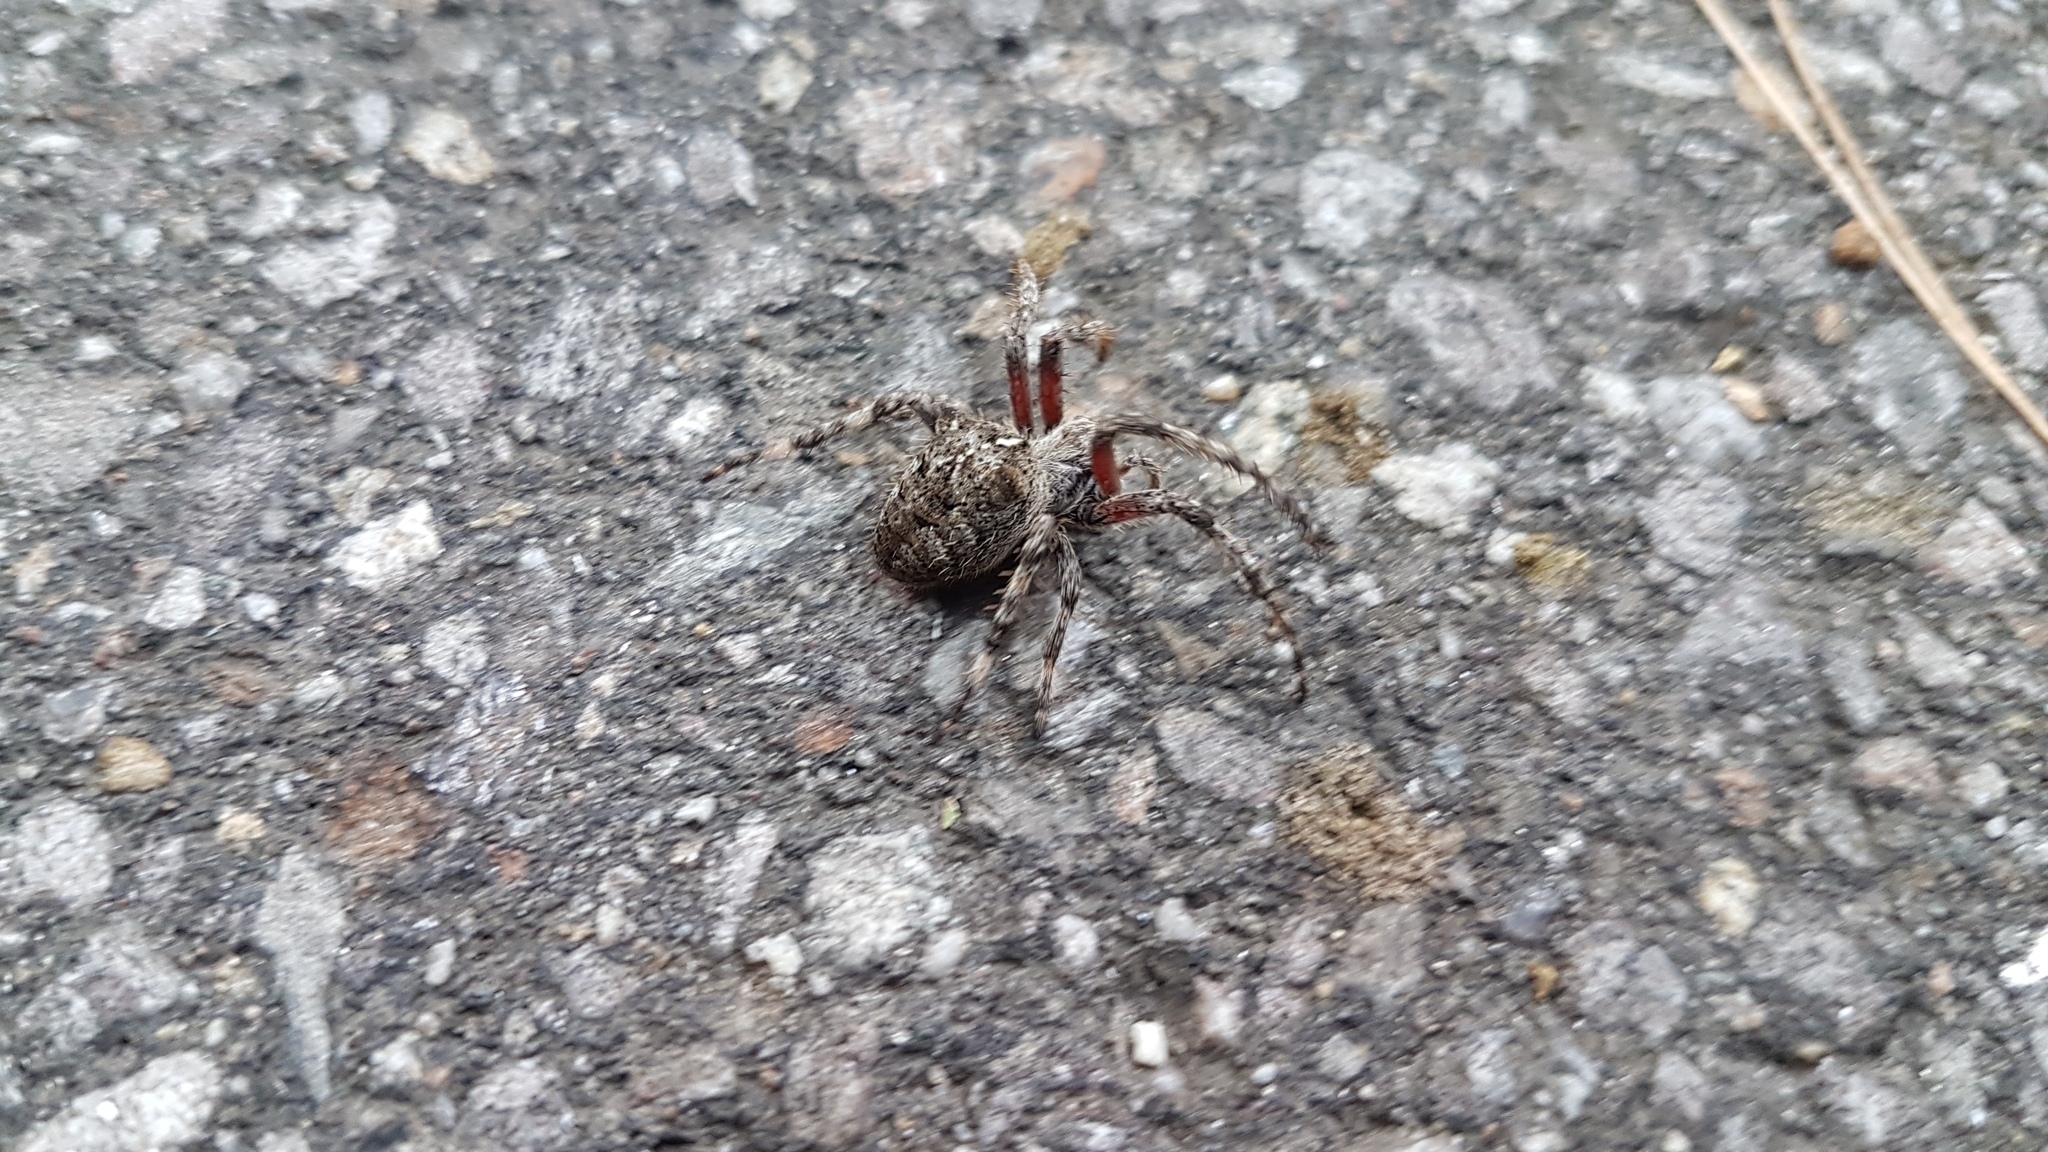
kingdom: Animalia
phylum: Arthropoda
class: Arachnida
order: Araneae
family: Araneidae
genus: Araneus
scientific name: Araneus saevus
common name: Fierce orbweaver
